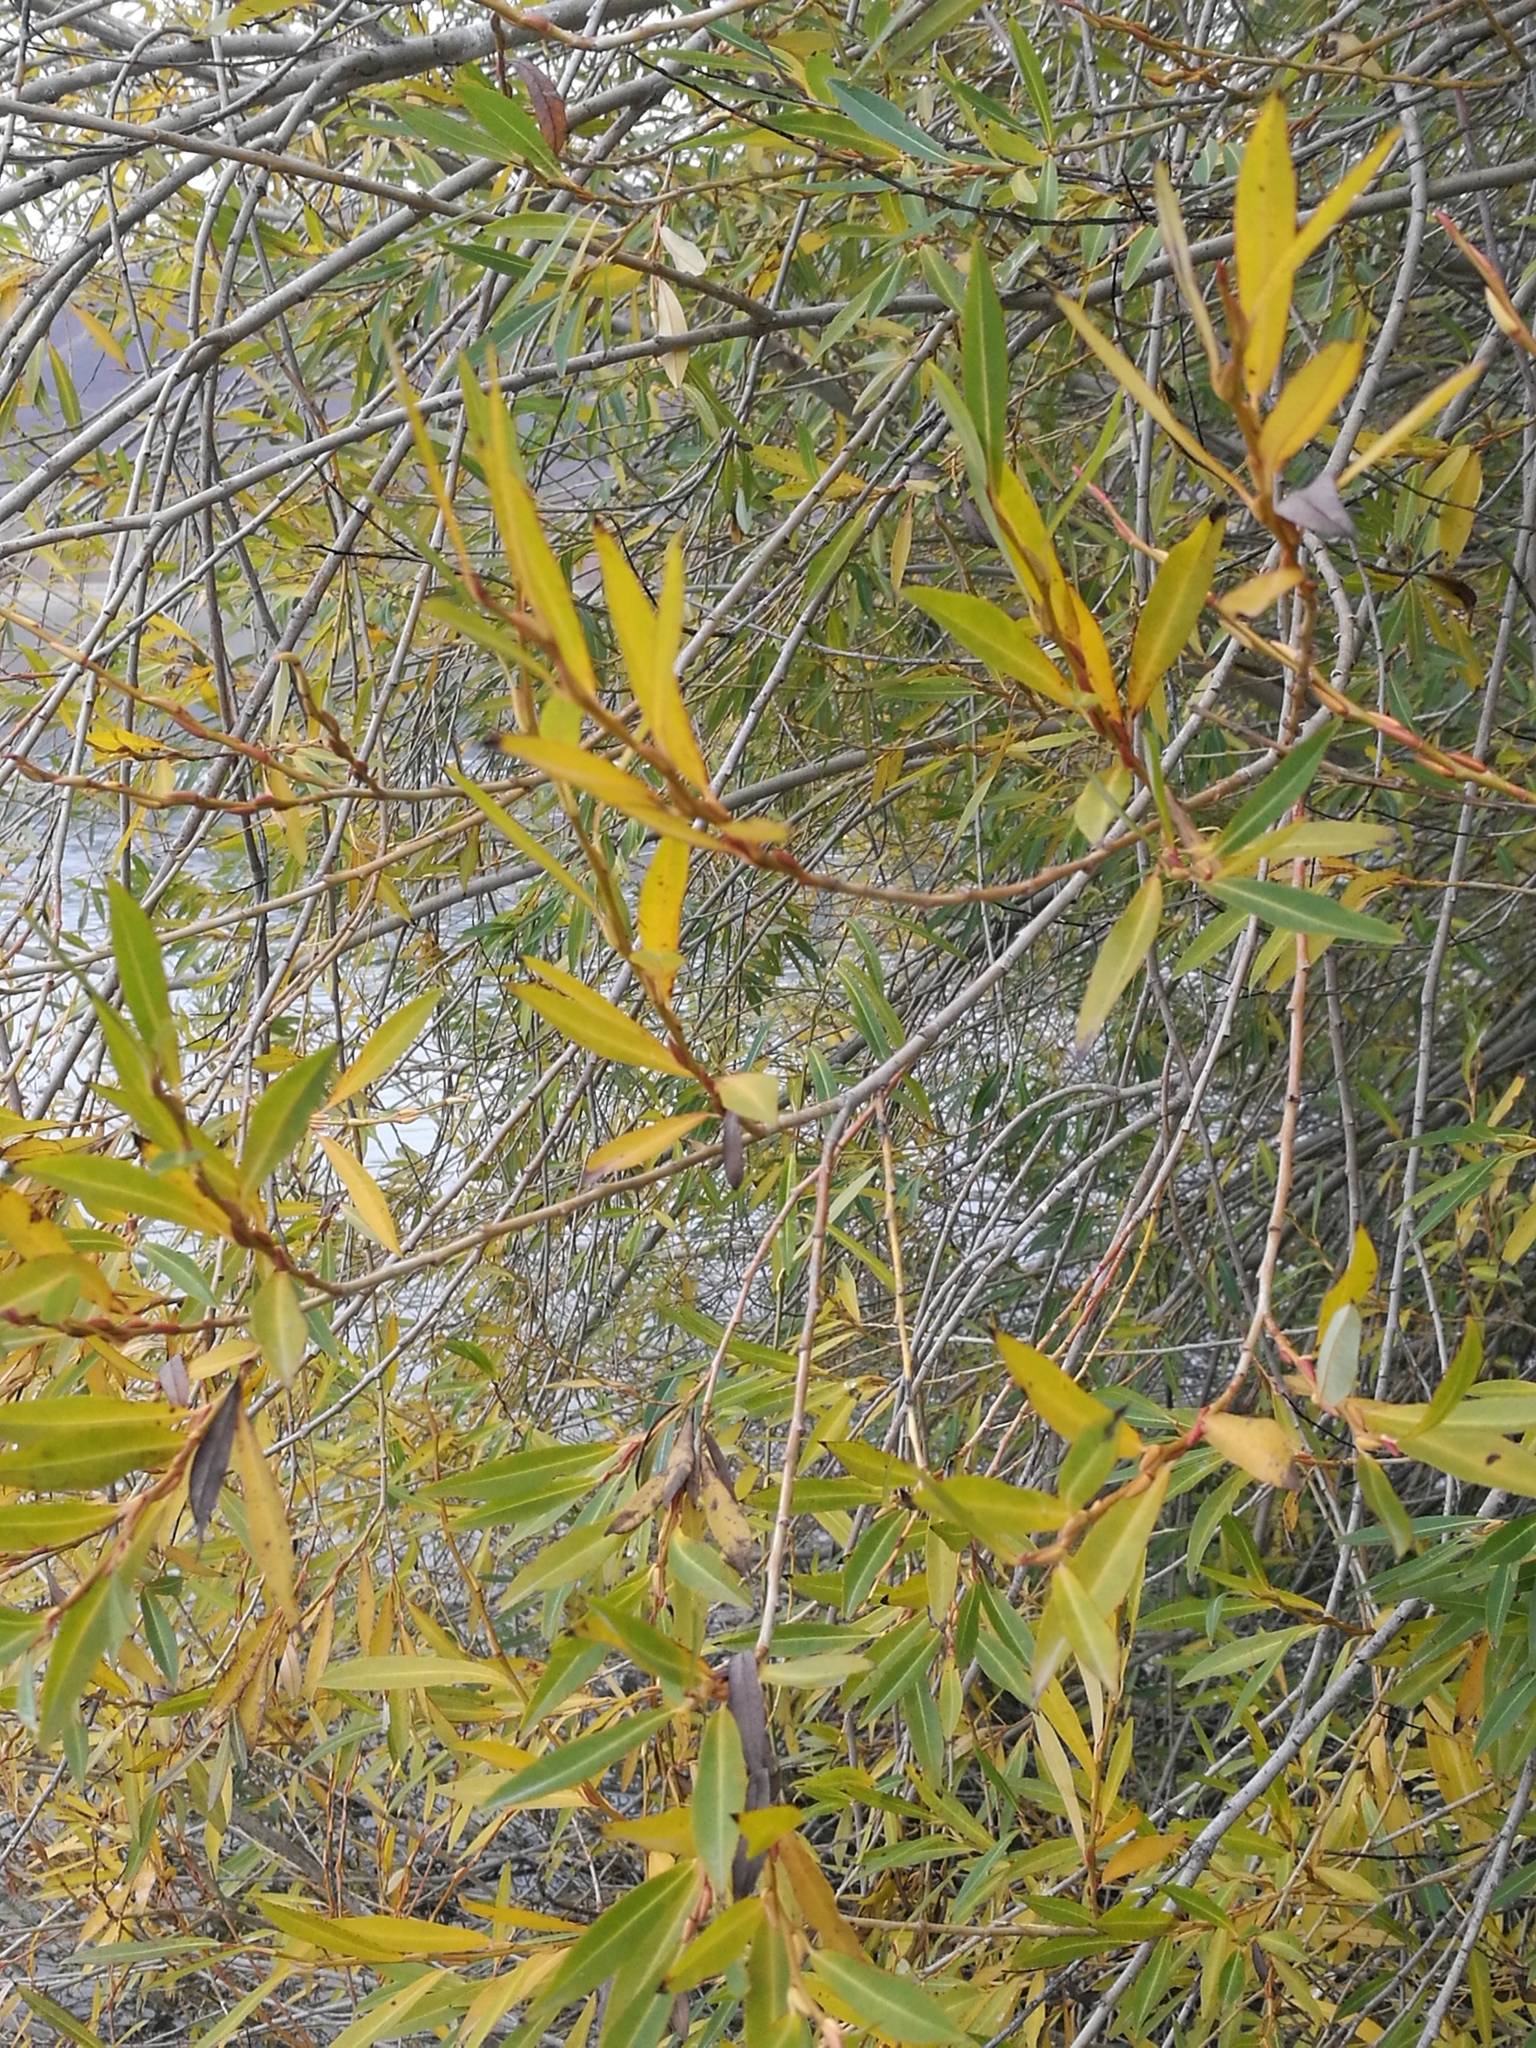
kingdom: Plantae
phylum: Tracheophyta
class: Magnoliopsida
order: Malpighiales
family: Salicaceae
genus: Salix
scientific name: Salix fragilis
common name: Crack willow
